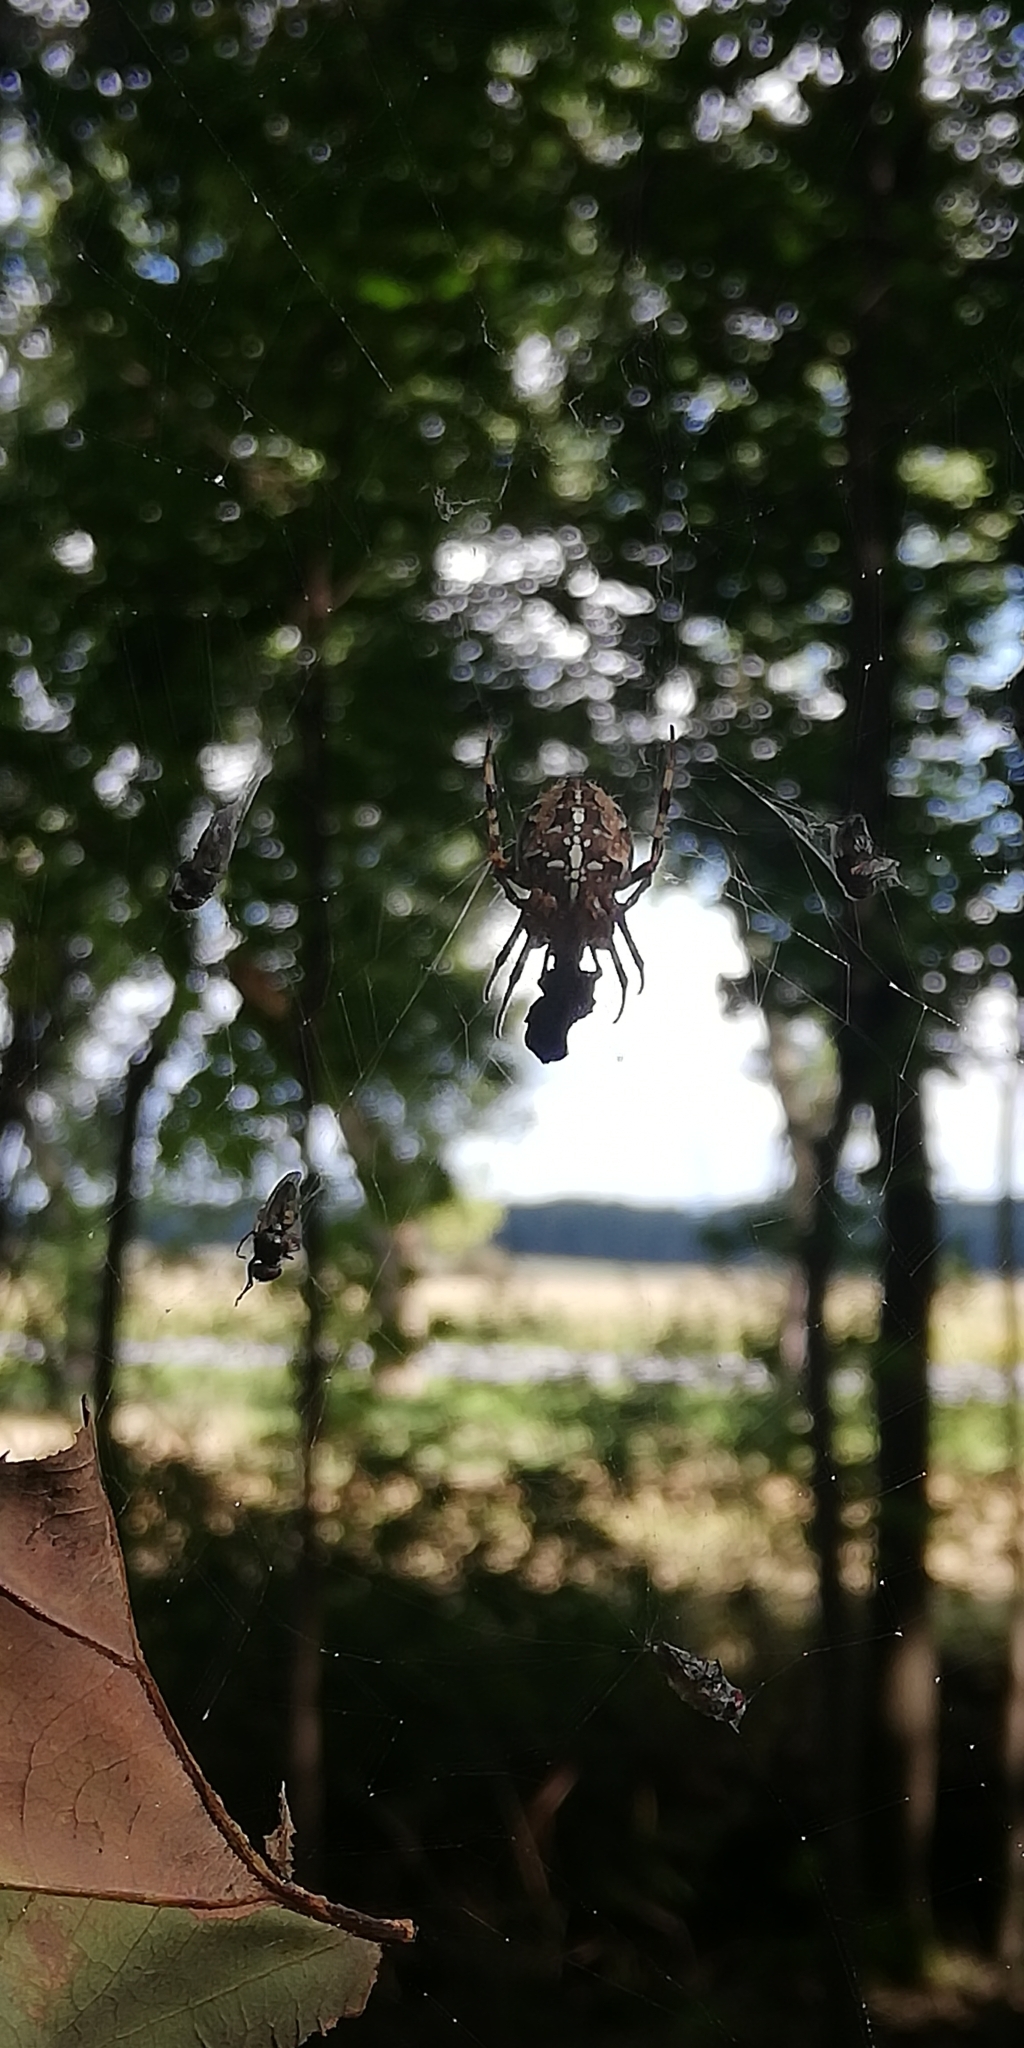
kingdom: Animalia
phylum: Arthropoda
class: Arachnida
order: Araneae
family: Araneidae
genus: Araneus
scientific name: Araneus diadematus
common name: Cross orbweaver
